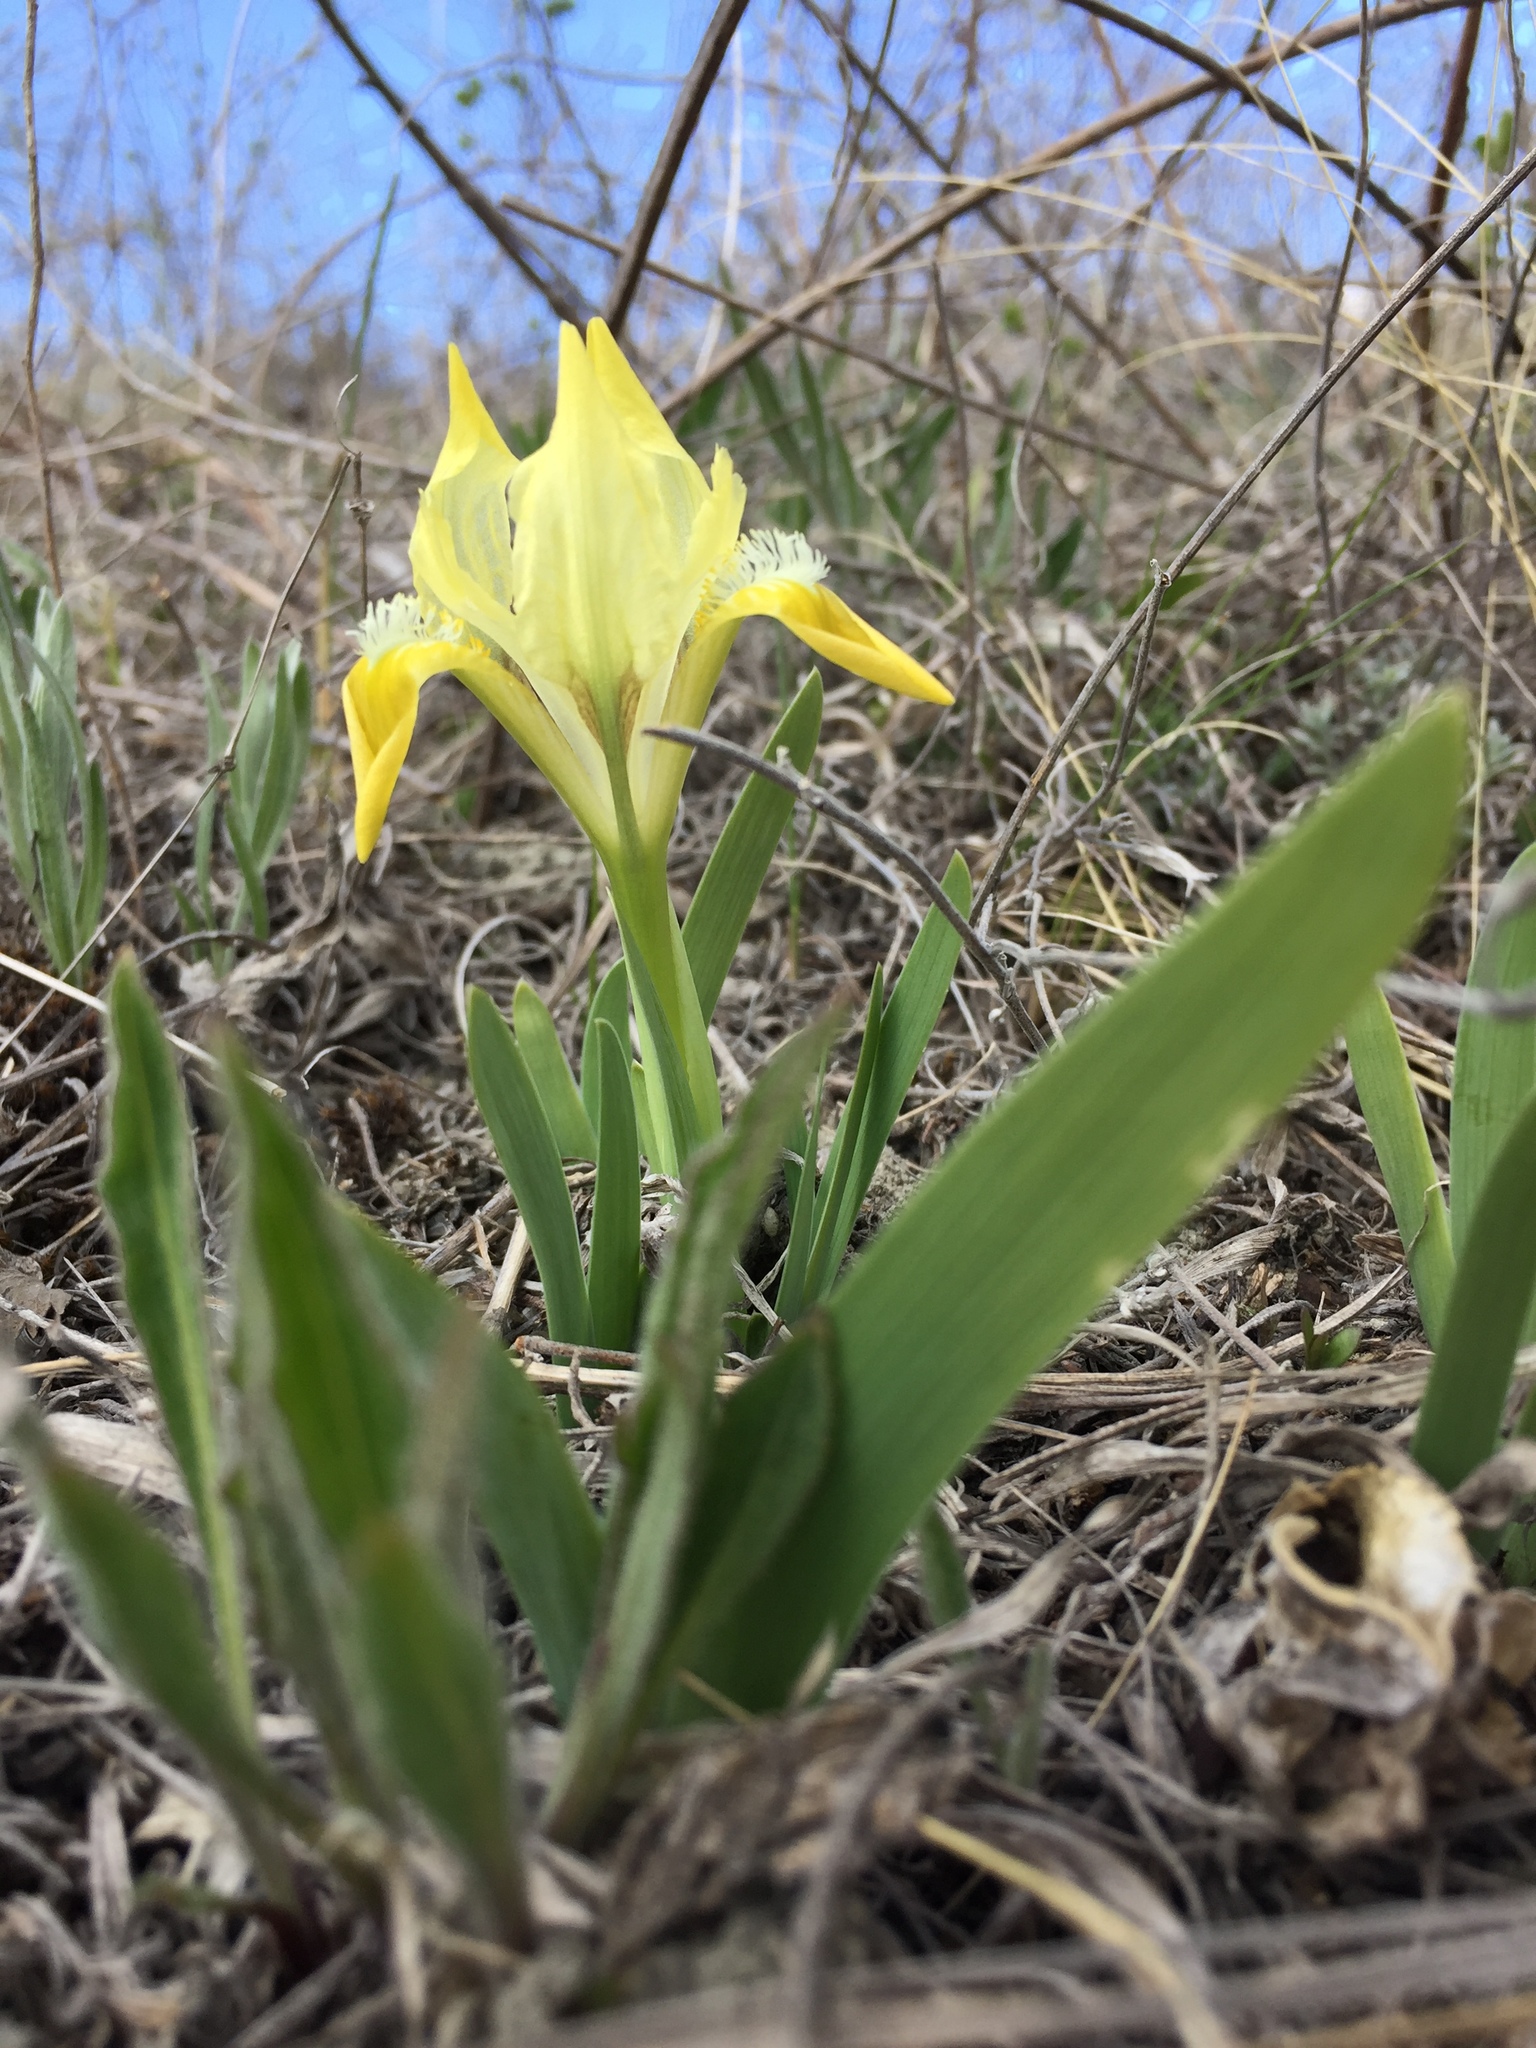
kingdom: Plantae
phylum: Tracheophyta
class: Liliopsida
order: Asparagales
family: Iridaceae
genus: Iris
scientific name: Iris pumila
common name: Dwarf iris
